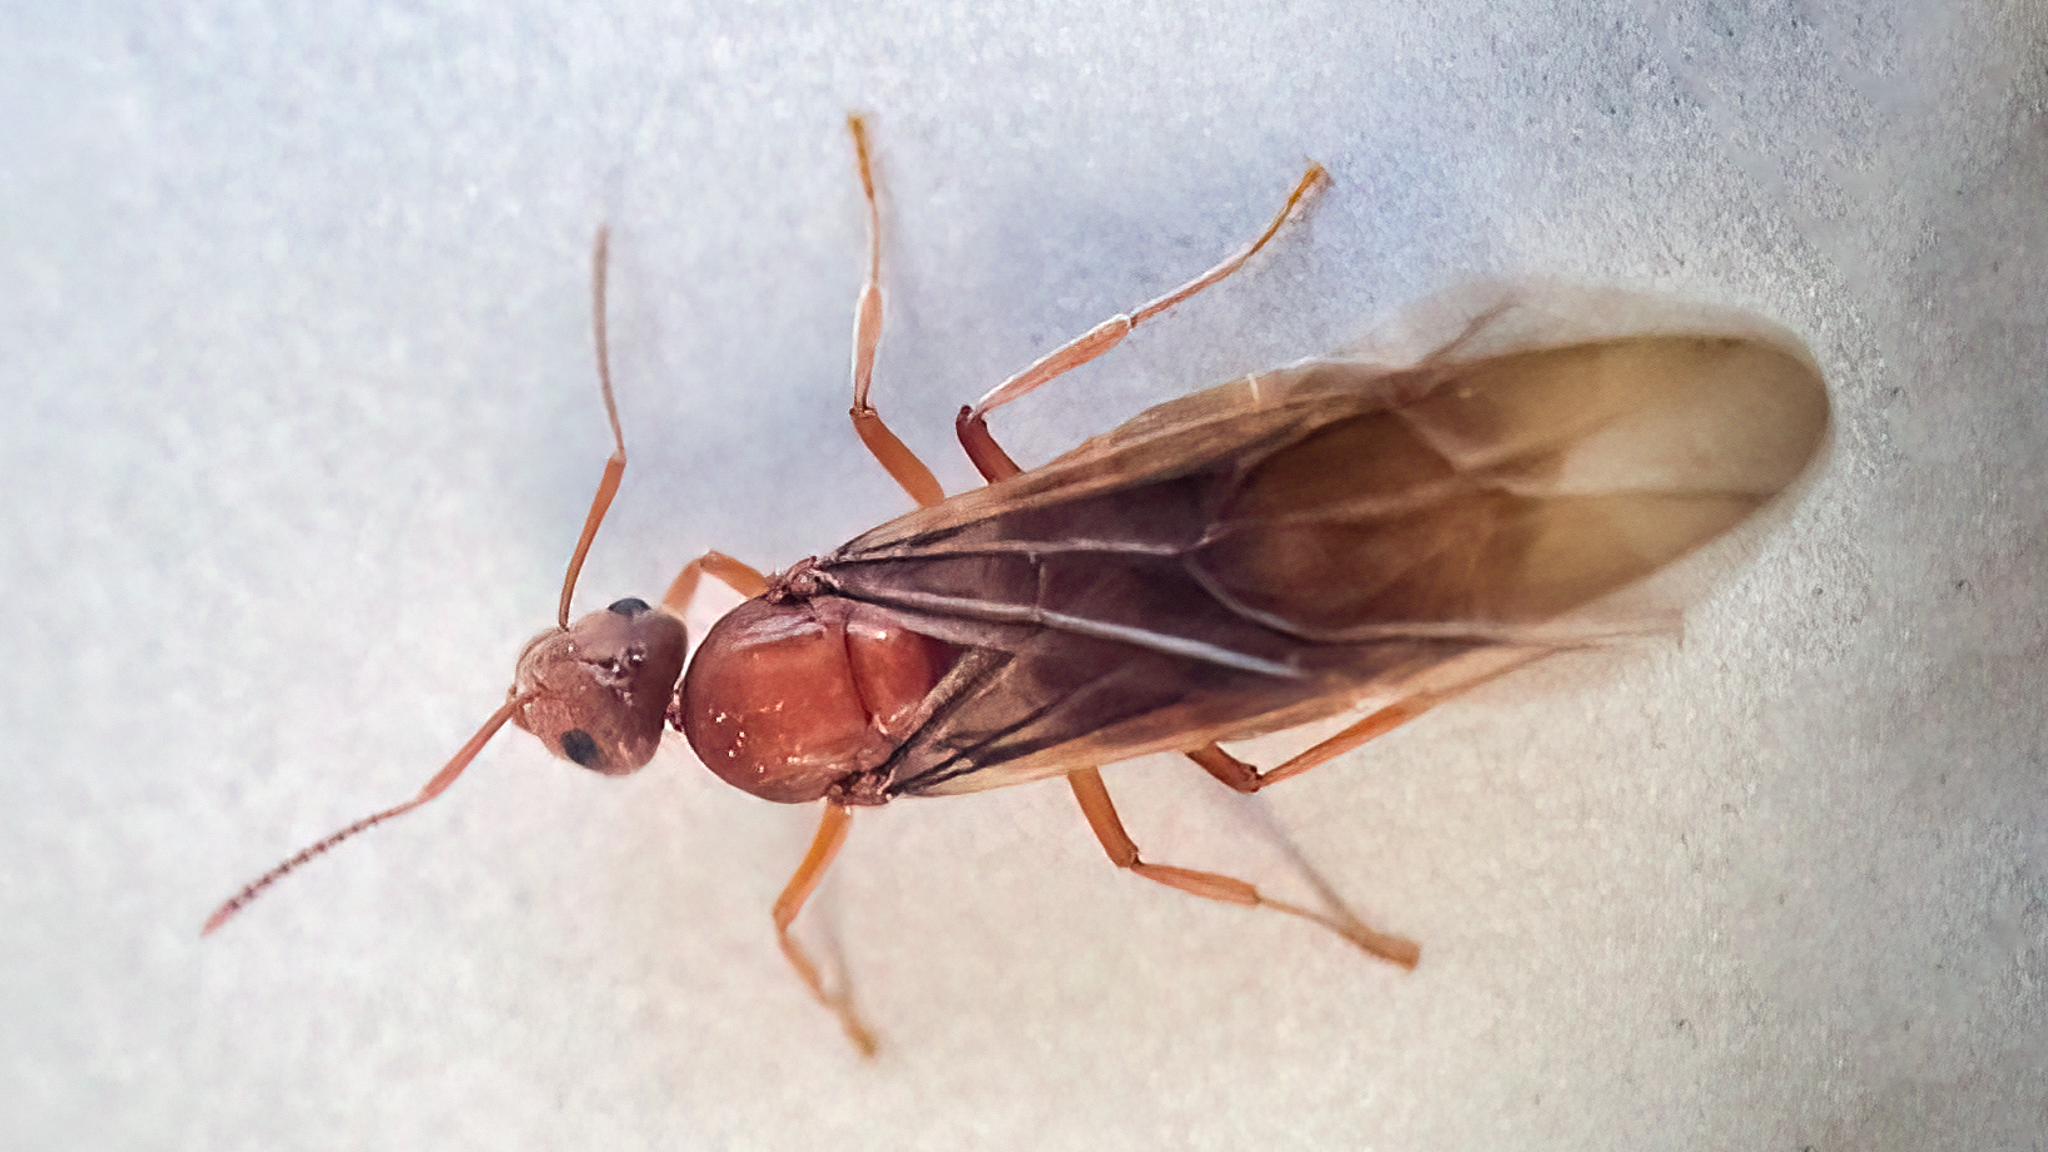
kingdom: Animalia
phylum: Arthropoda
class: Insecta
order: Hymenoptera
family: Formicidae
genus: Prenolepis
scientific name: Prenolepis imparis
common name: Small honey ant
